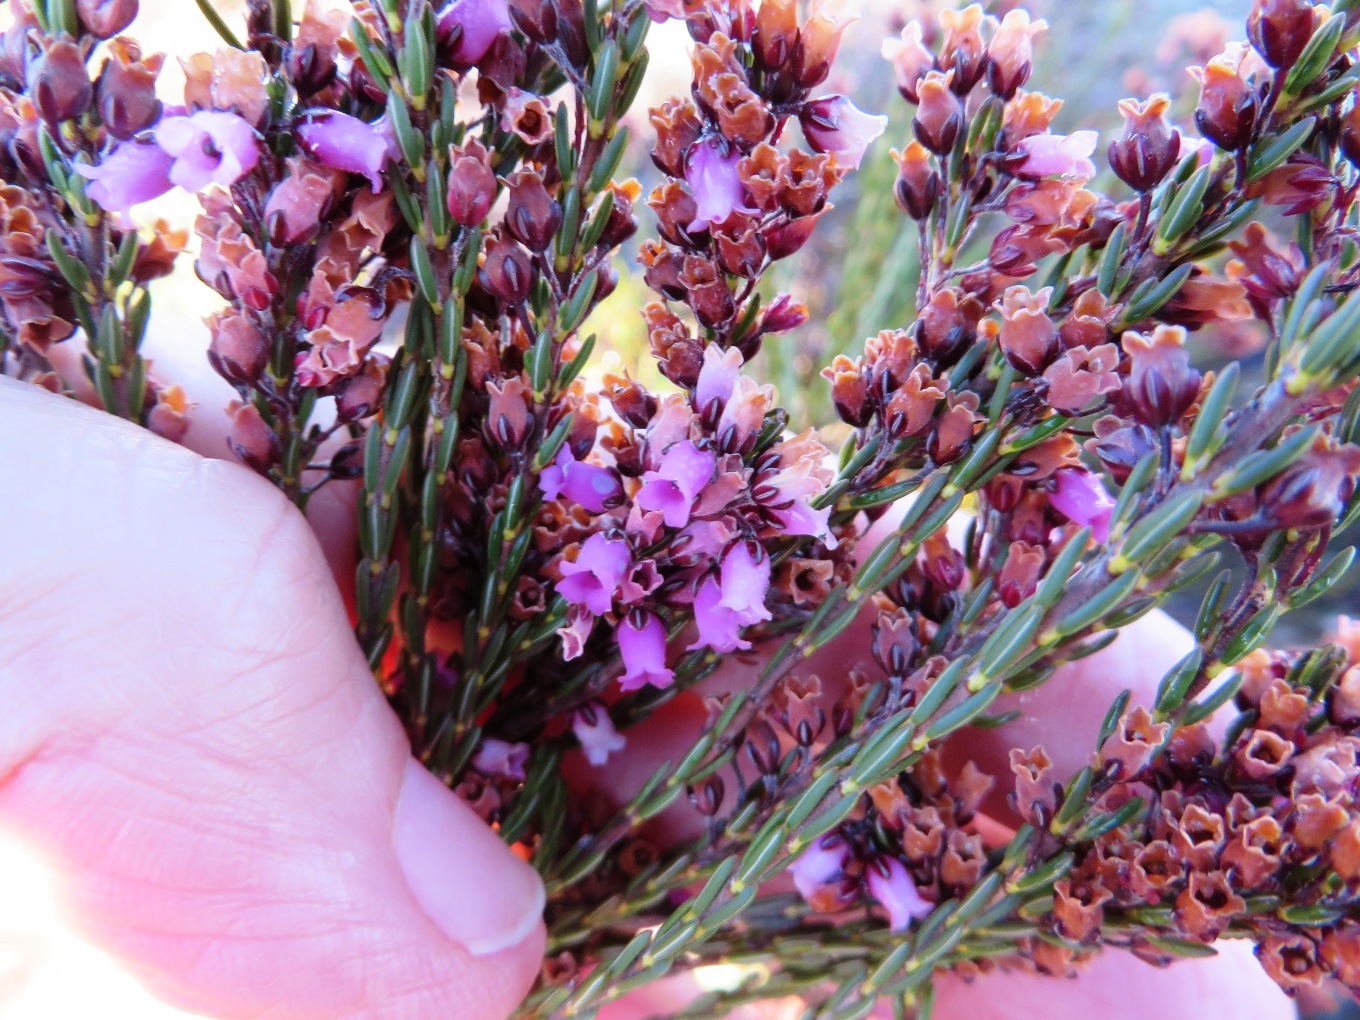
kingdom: Plantae
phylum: Tracheophyta
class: Magnoliopsida
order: Ericales
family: Ericaceae
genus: Erica
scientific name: Erica pulchella
